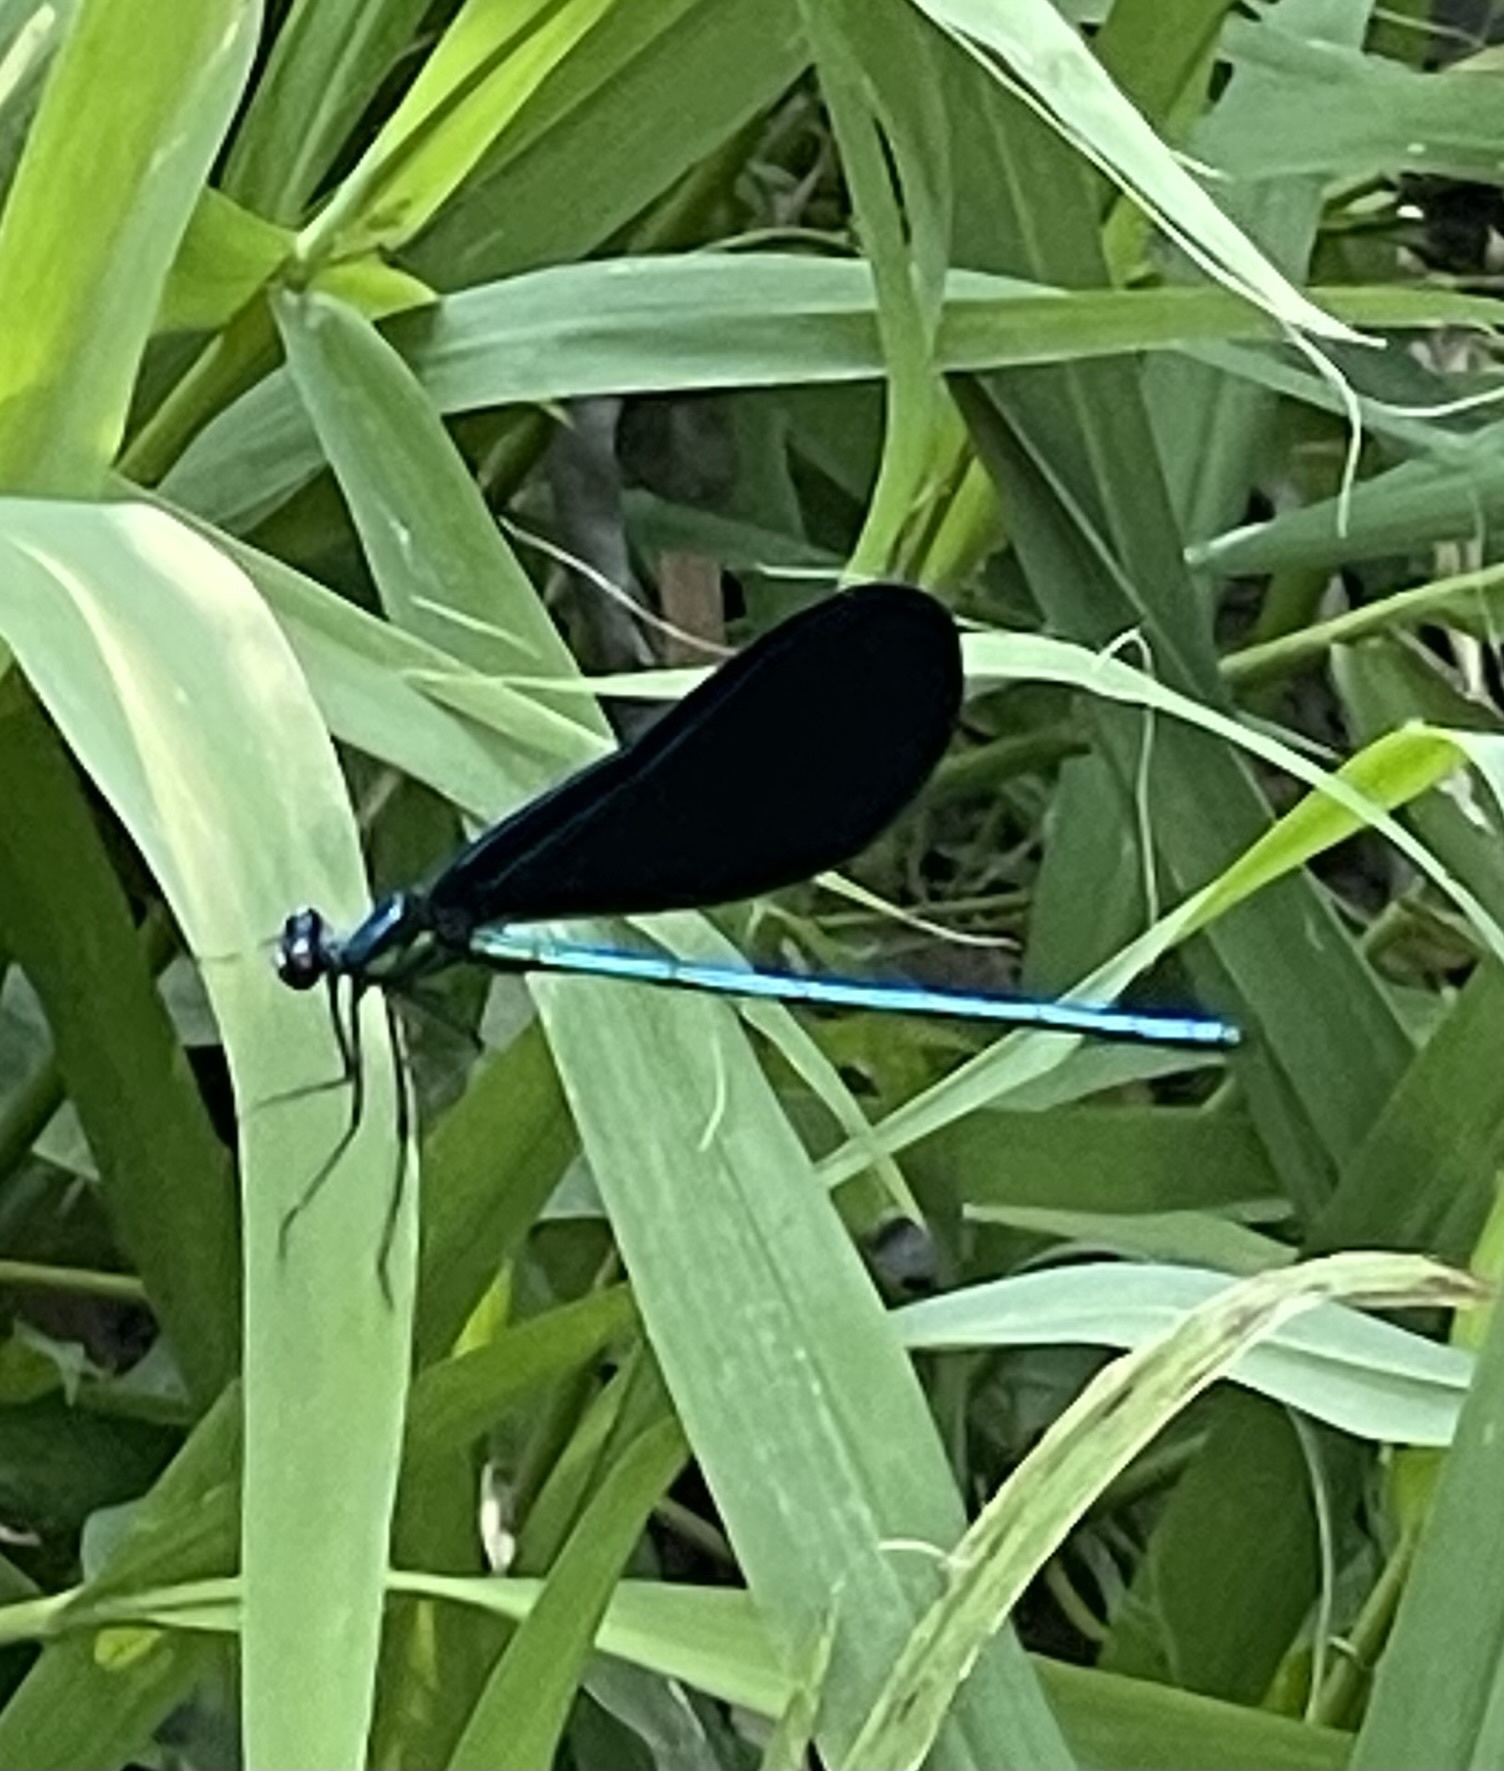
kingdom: Animalia
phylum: Arthropoda
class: Insecta
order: Odonata
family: Calopterygidae
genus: Calopteryx
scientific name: Calopteryx maculata
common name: Ebony jewelwing
